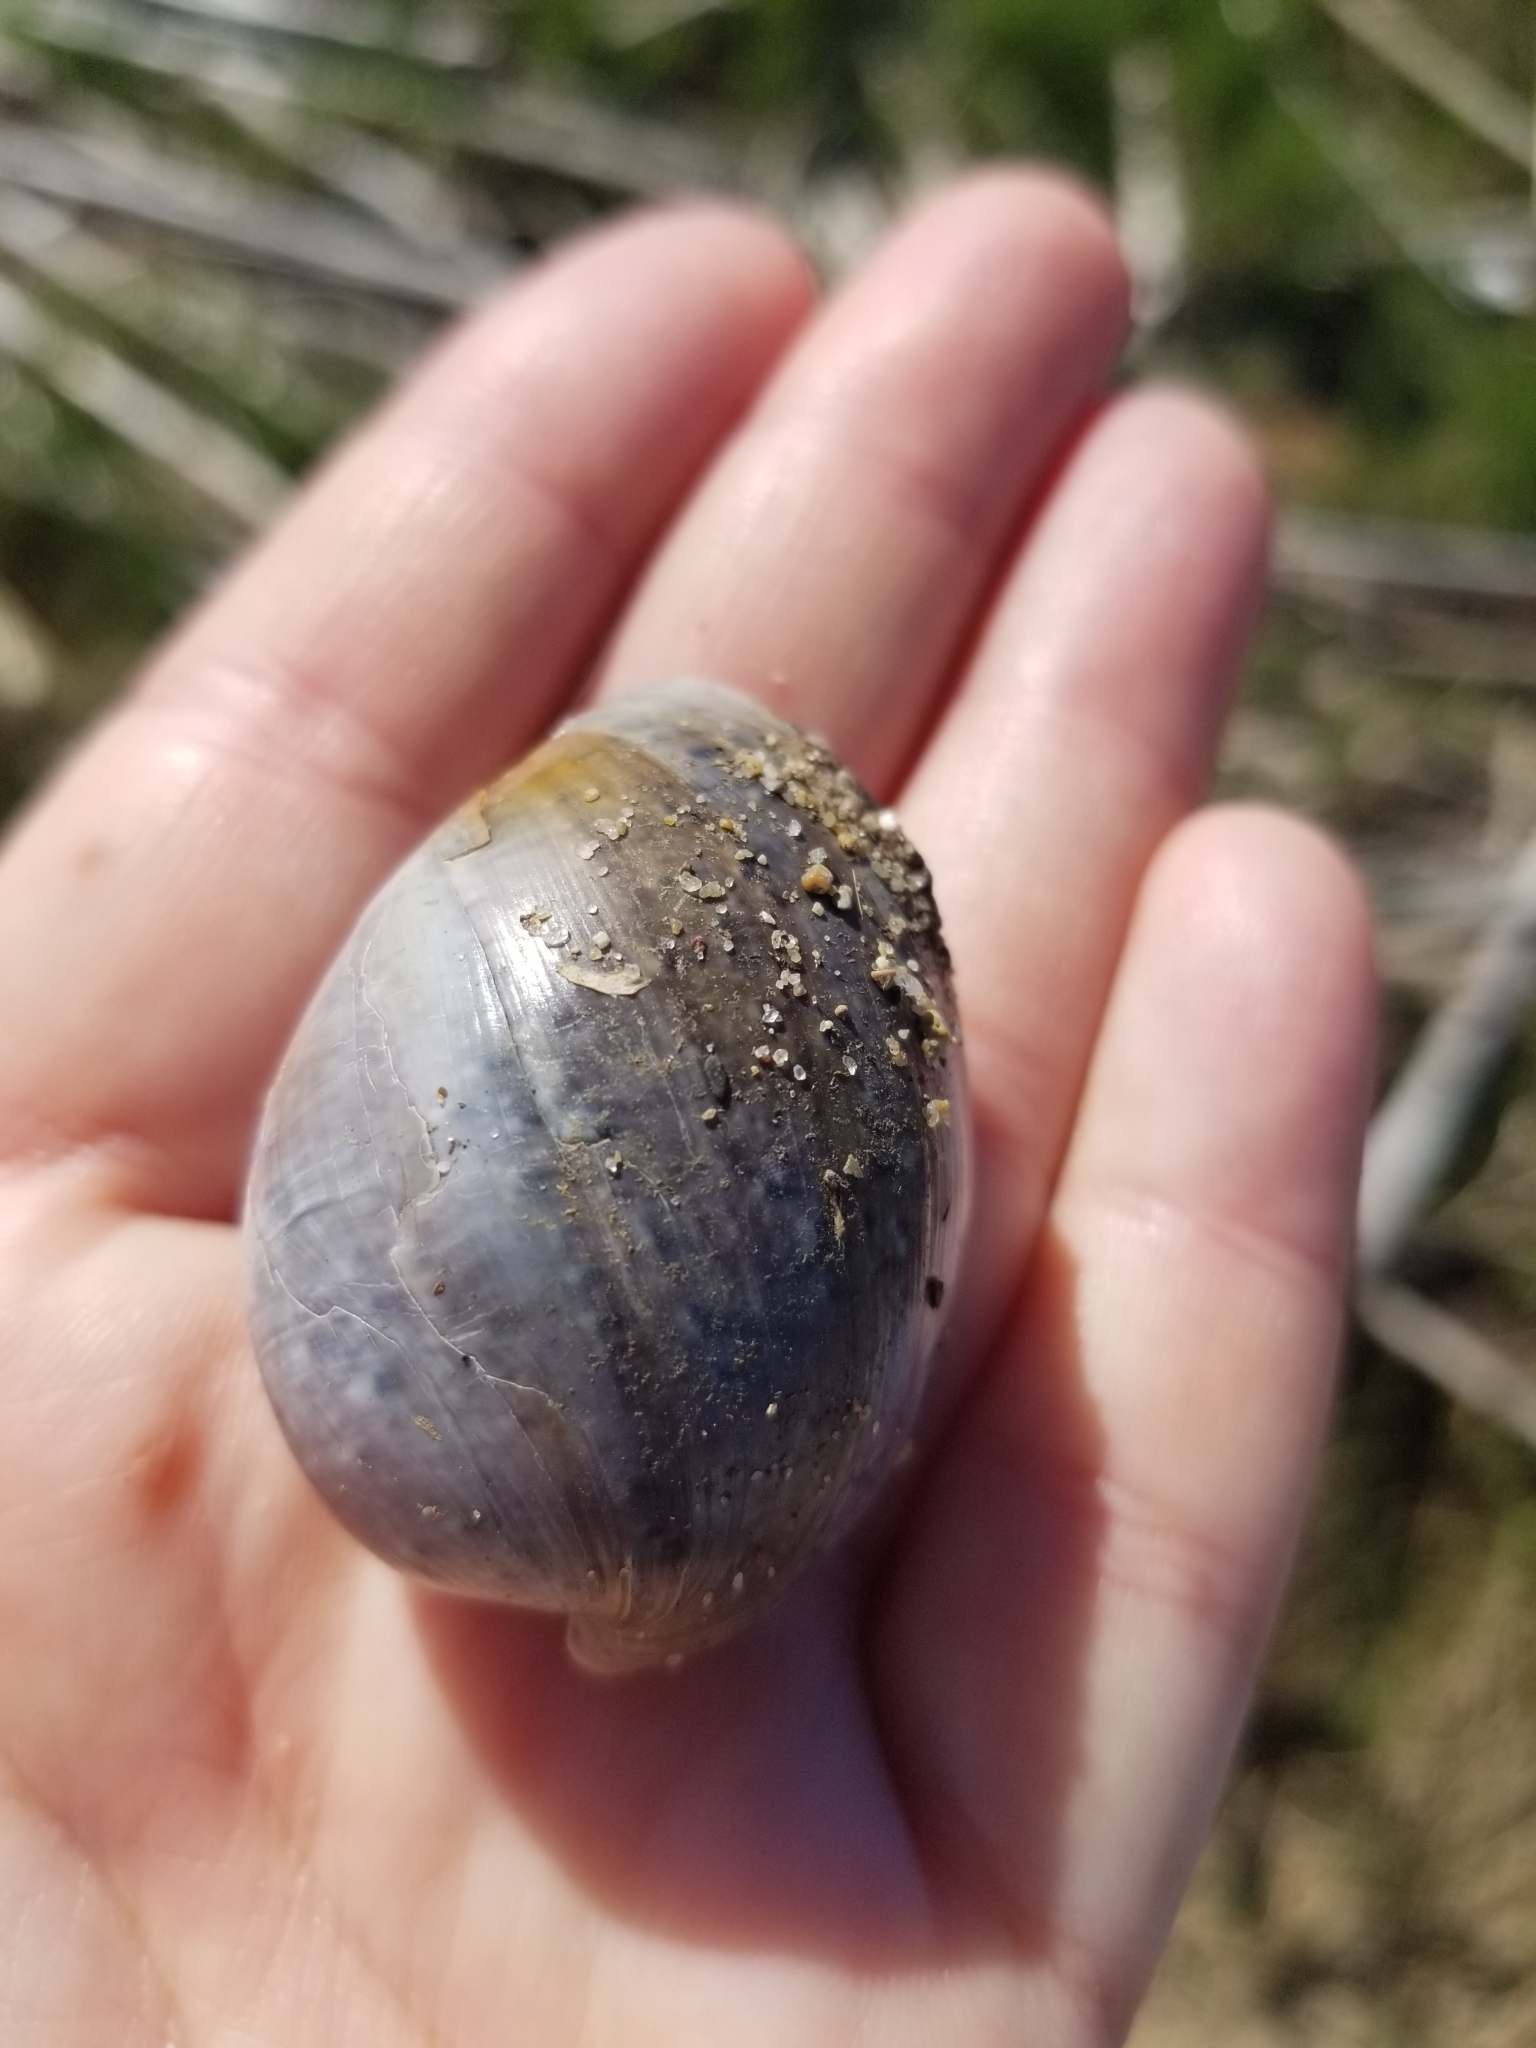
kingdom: Animalia
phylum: Mollusca
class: Gastropoda
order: Cephalaspidea
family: Bullidae
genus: Bulla
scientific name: Bulla gouldiana
